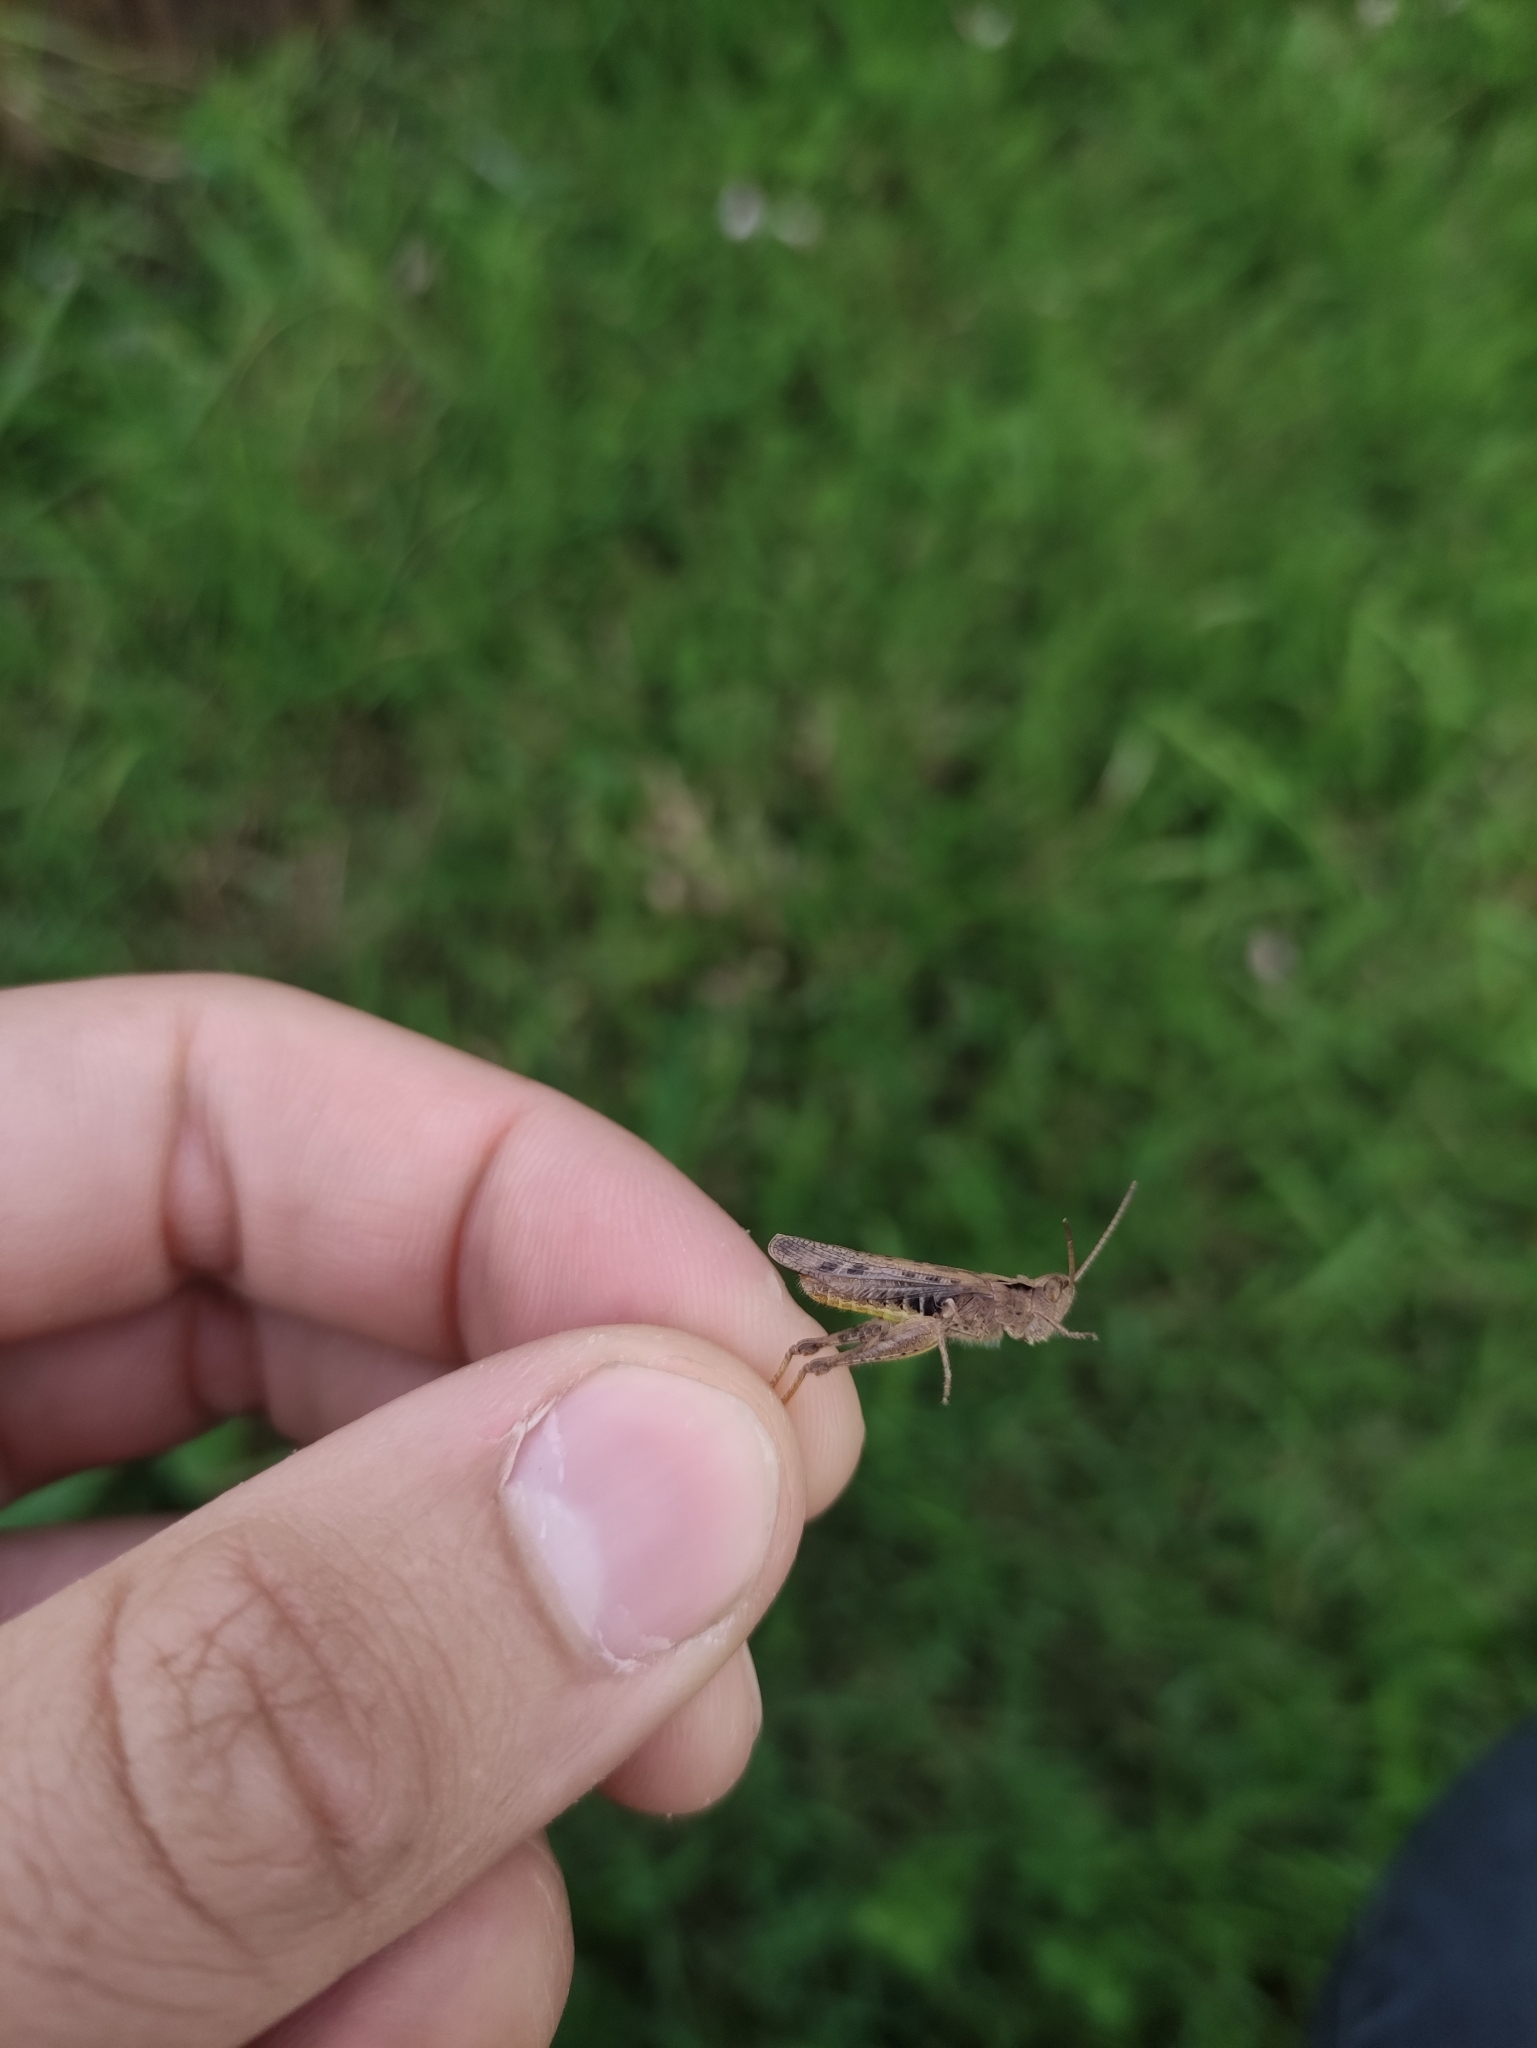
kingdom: Animalia
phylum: Arthropoda
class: Insecta
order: Orthoptera
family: Acrididae
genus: Chorthippus
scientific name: Chorthippus biguttulus
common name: Bow-winged grasshopper
